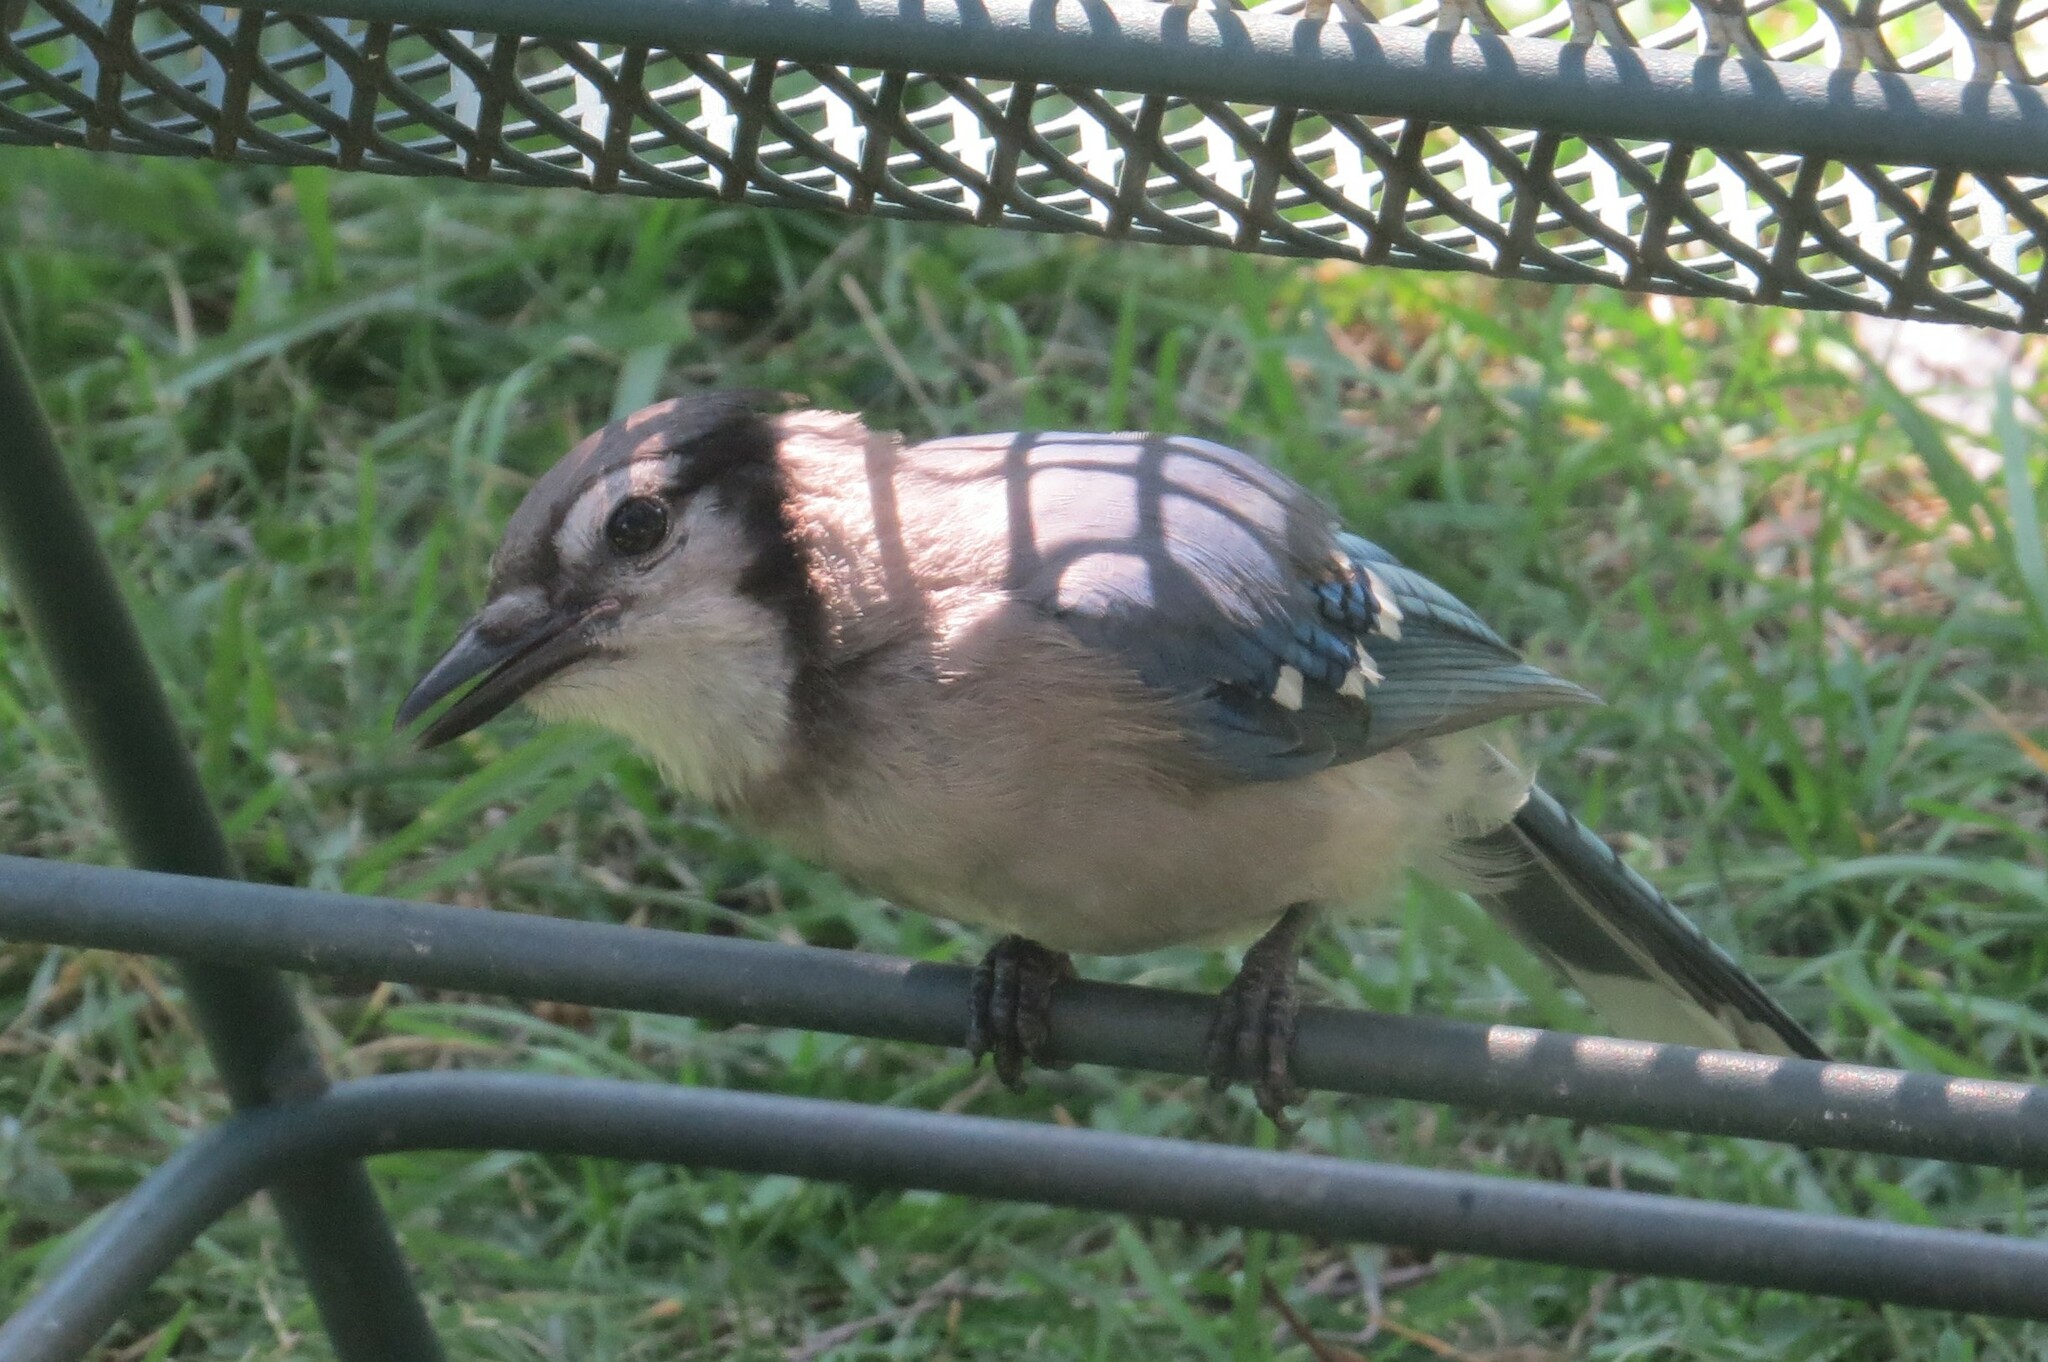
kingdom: Animalia
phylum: Chordata
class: Aves
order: Passeriformes
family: Corvidae
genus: Cyanocitta
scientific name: Cyanocitta cristata
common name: Blue jay
